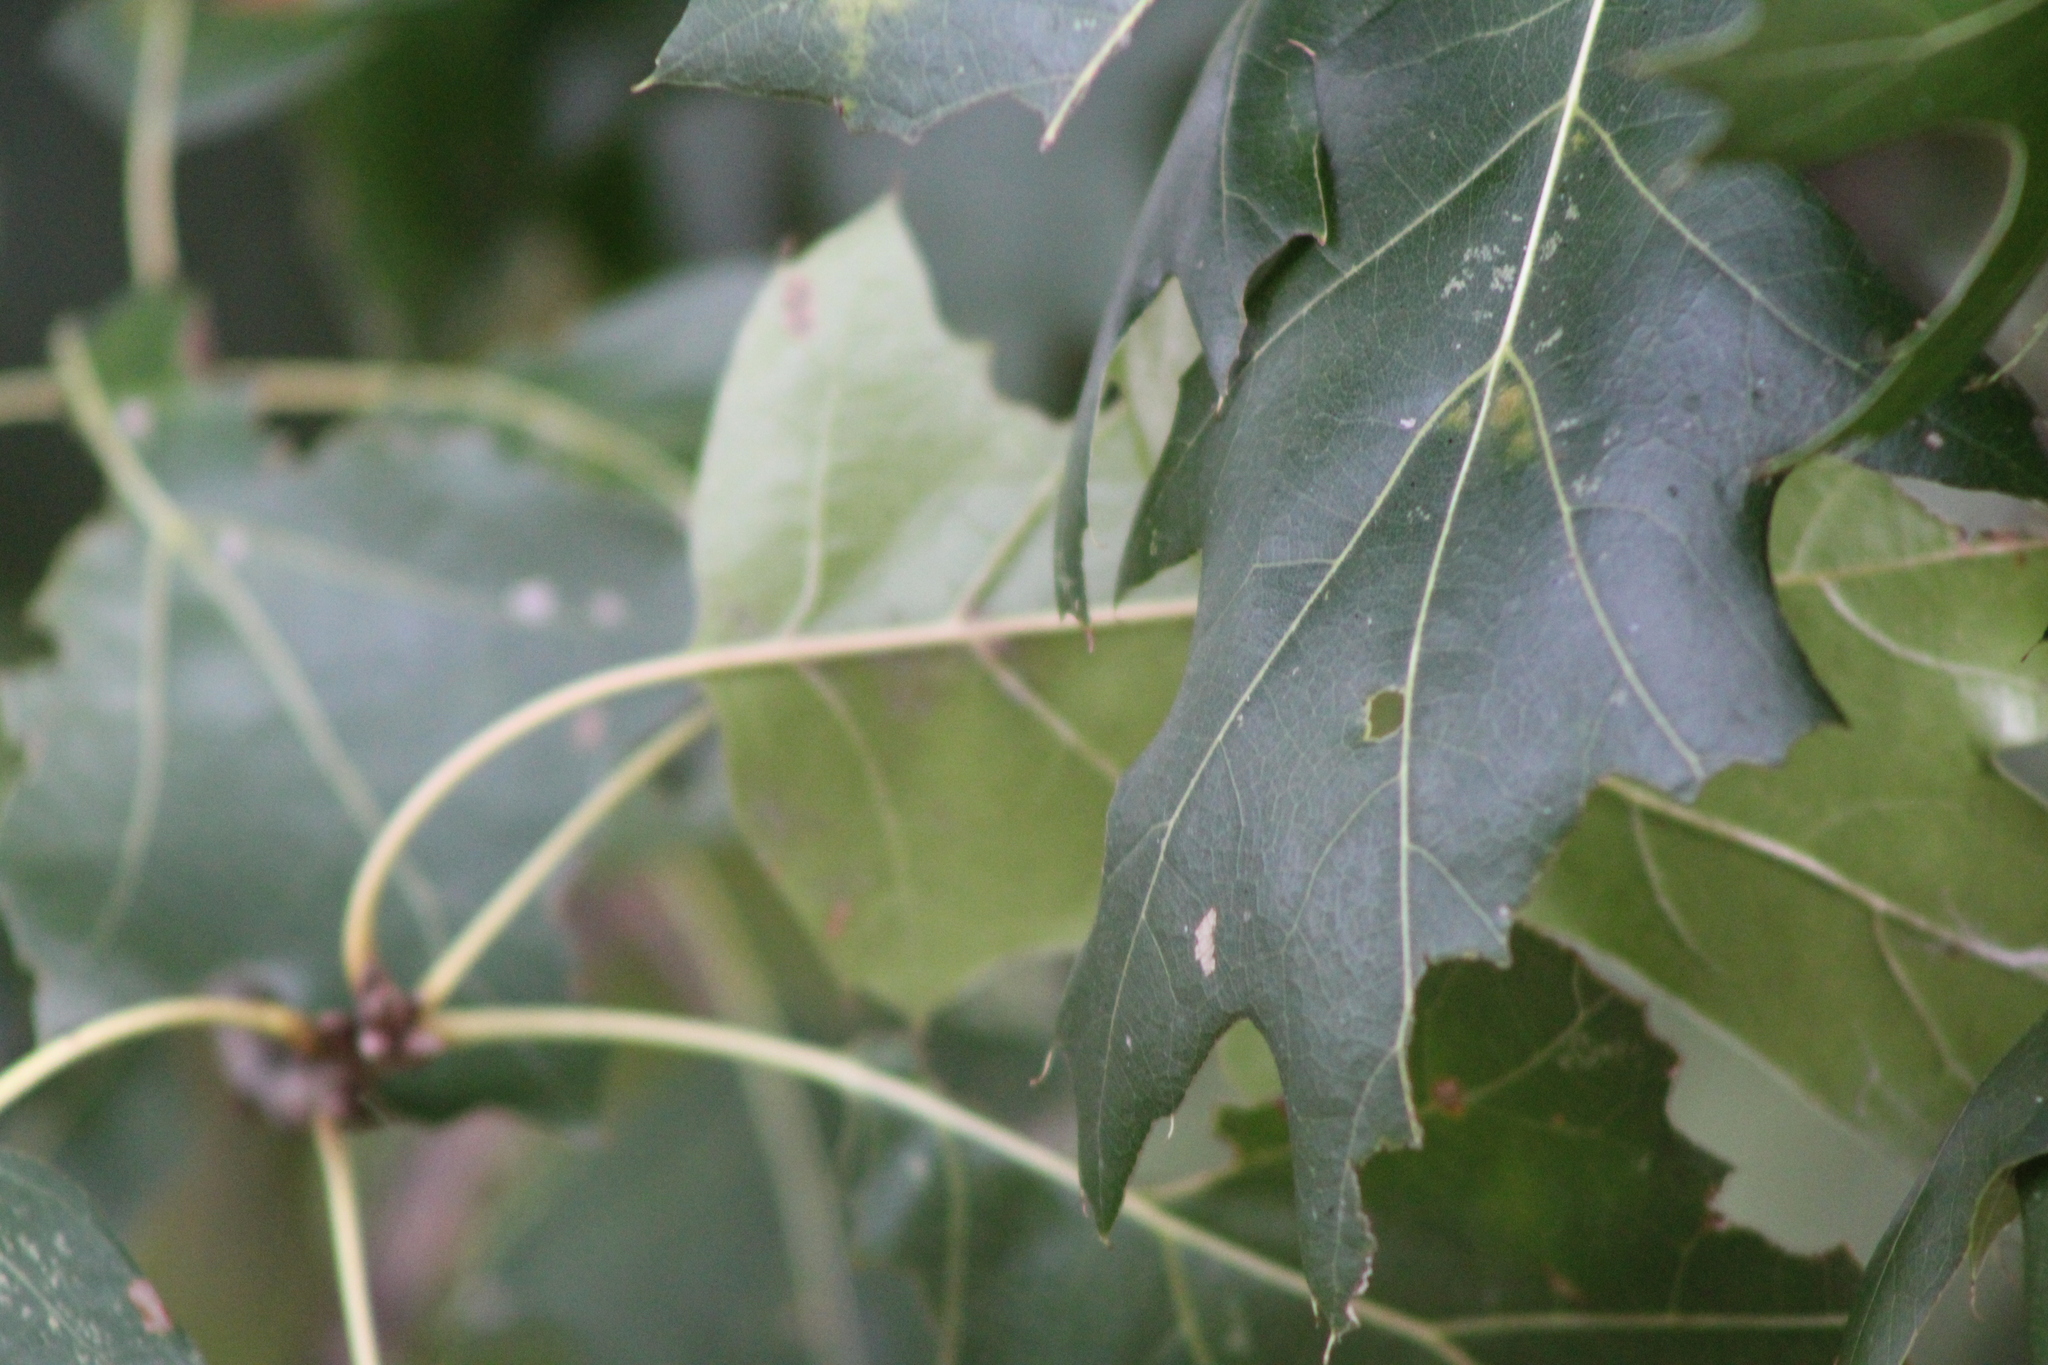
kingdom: Plantae
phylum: Tracheophyta
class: Magnoliopsida
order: Fagales
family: Fagaceae
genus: Quercus
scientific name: Quercus
